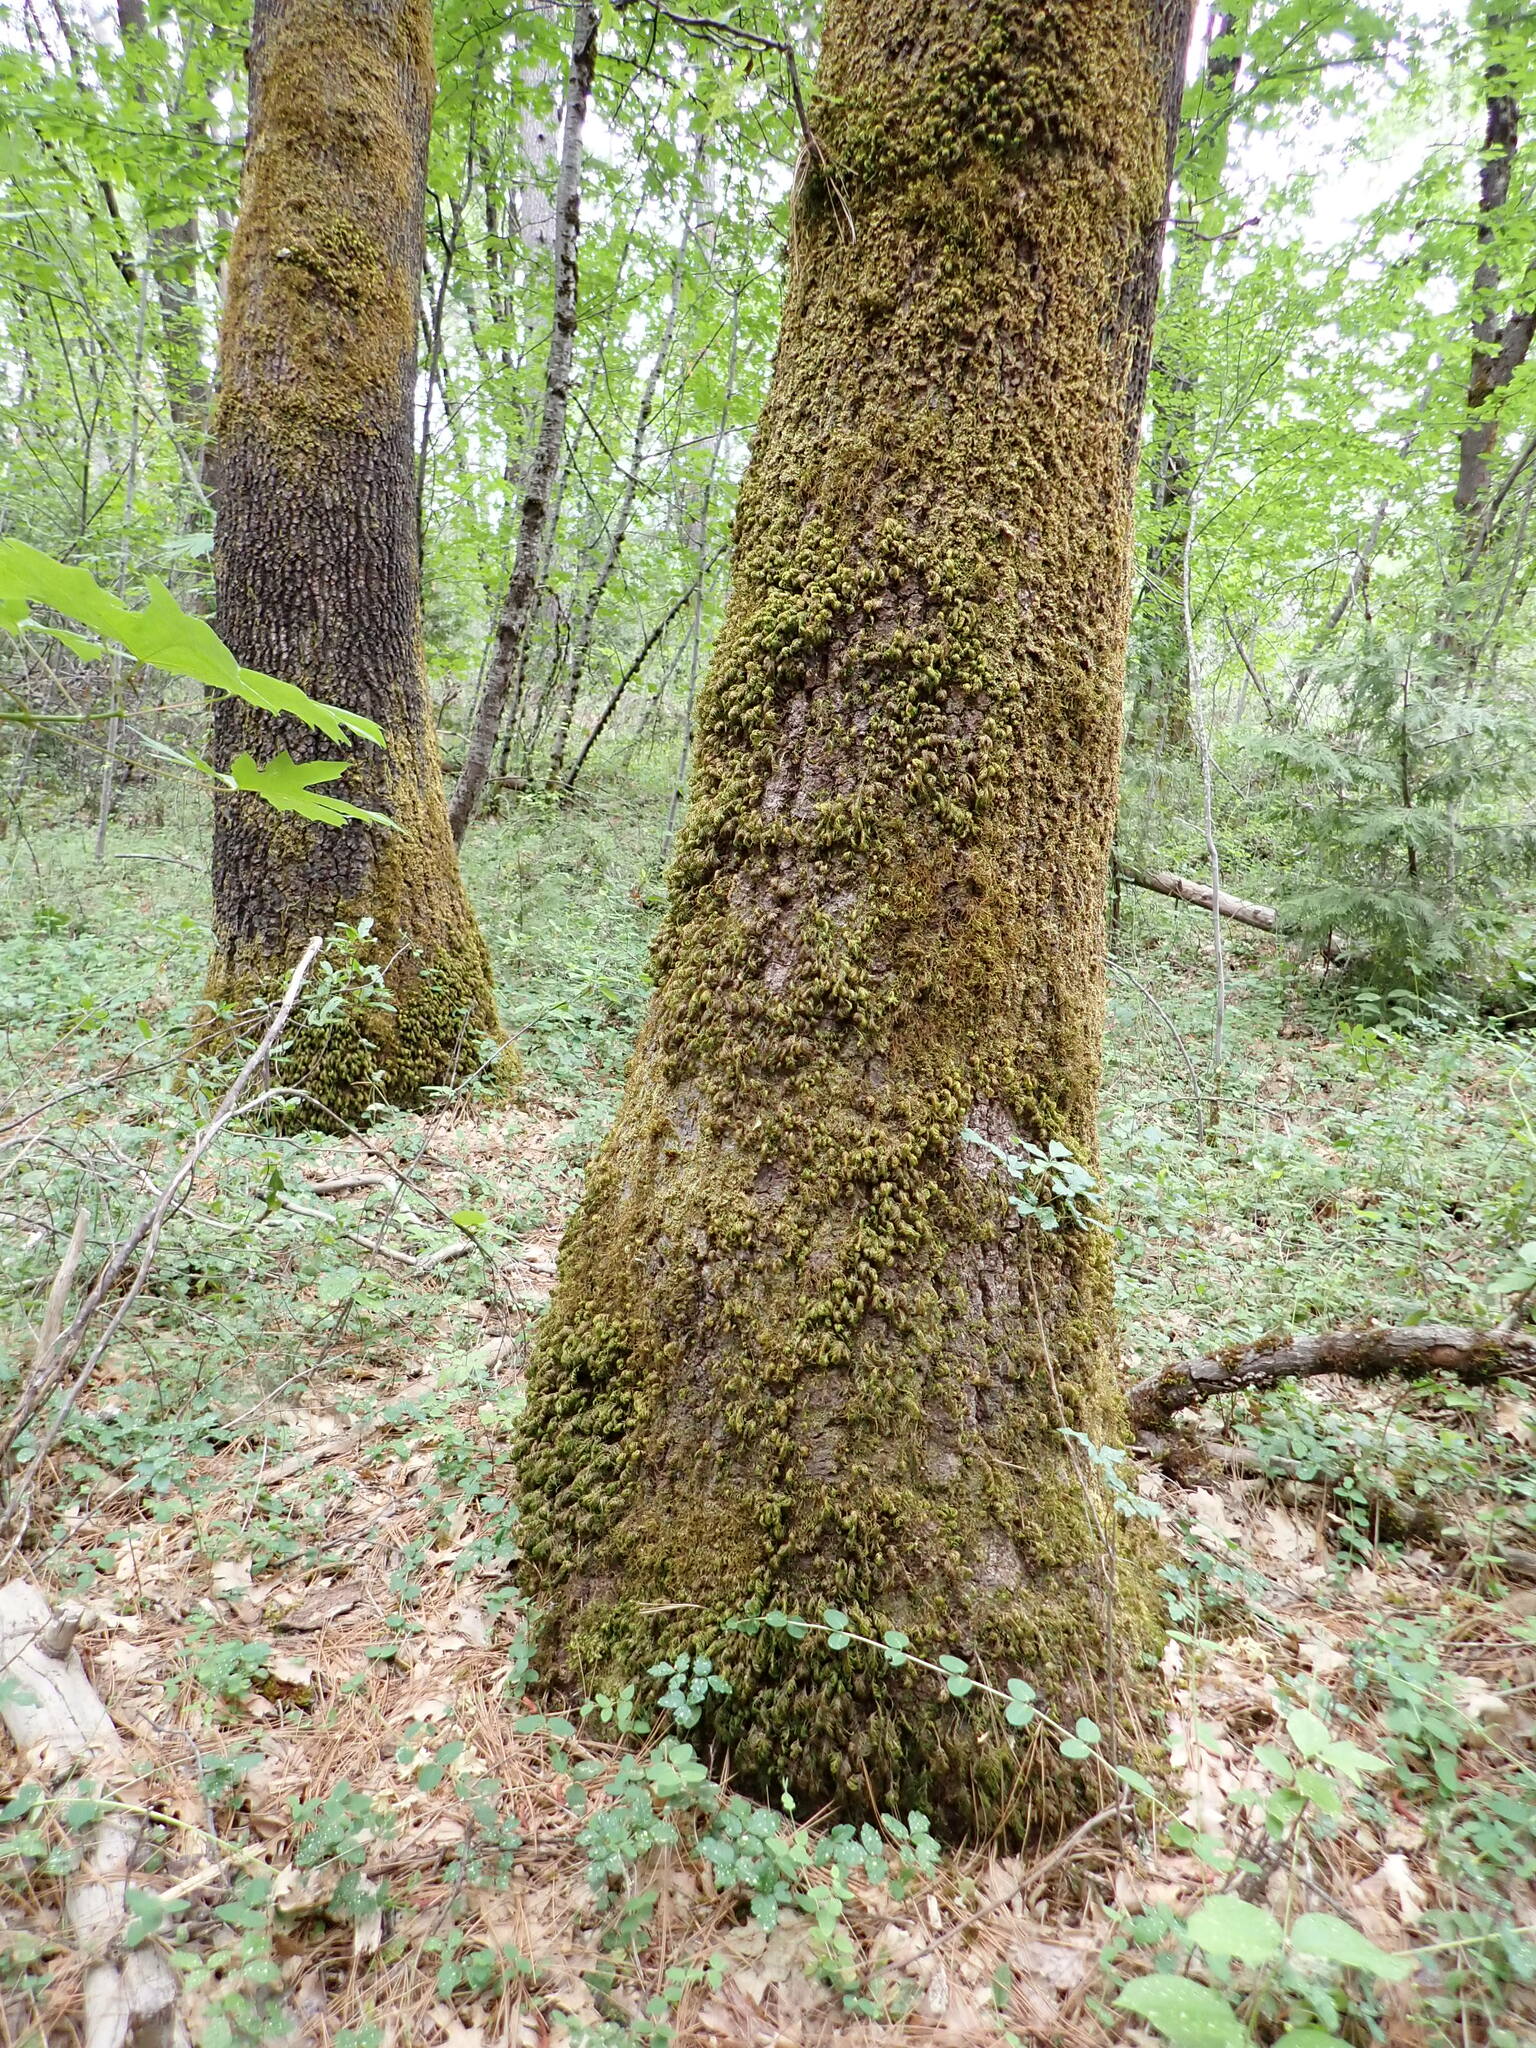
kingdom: Plantae
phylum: Bryophyta
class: Bryopsida
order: Hypnales
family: Cryphaeaceae
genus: Dendroalsia
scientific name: Dendroalsia abietina
